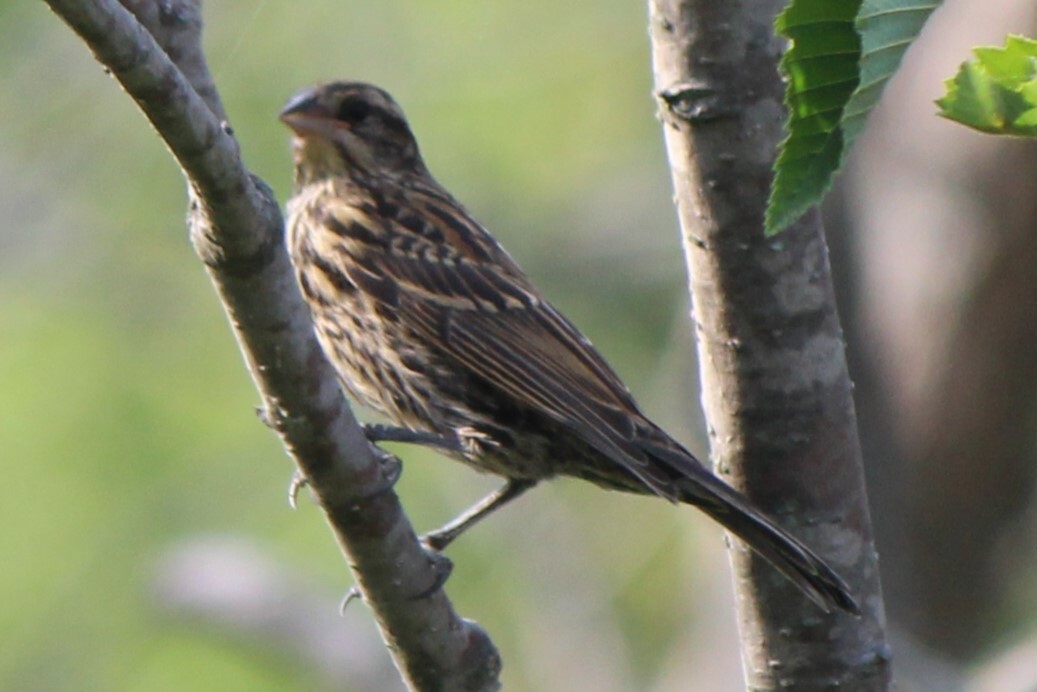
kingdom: Animalia
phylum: Chordata
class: Aves
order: Passeriformes
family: Icteridae
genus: Agelaius
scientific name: Agelaius phoeniceus
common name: Red-winged blackbird
